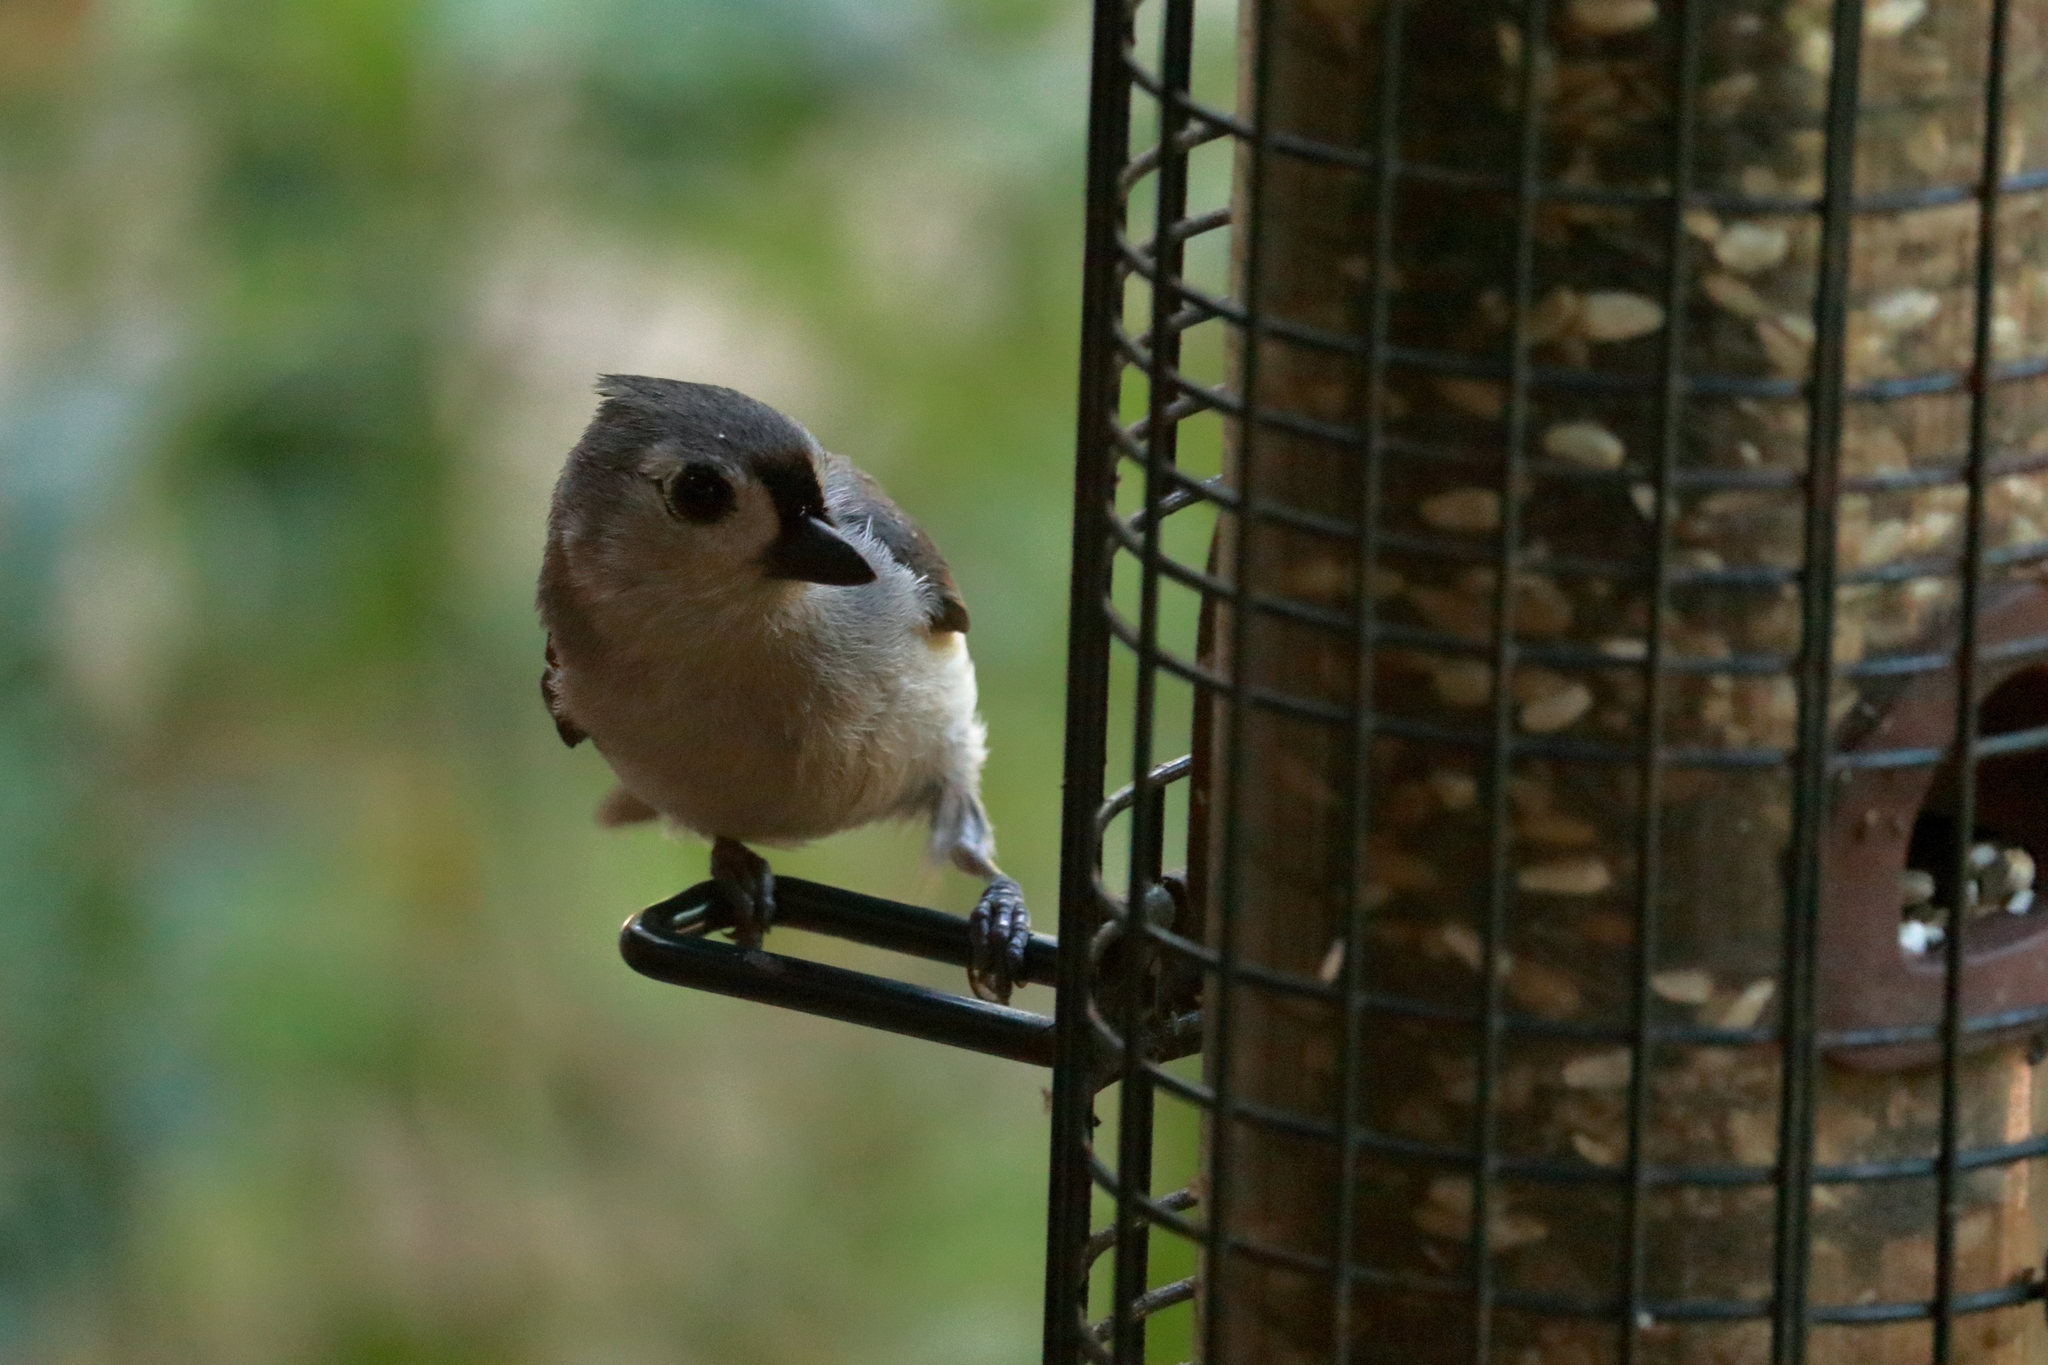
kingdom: Animalia
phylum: Chordata
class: Aves
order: Passeriformes
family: Paridae
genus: Baeolophus
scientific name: Baeolophus bicolor
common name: Tufted titmouse
